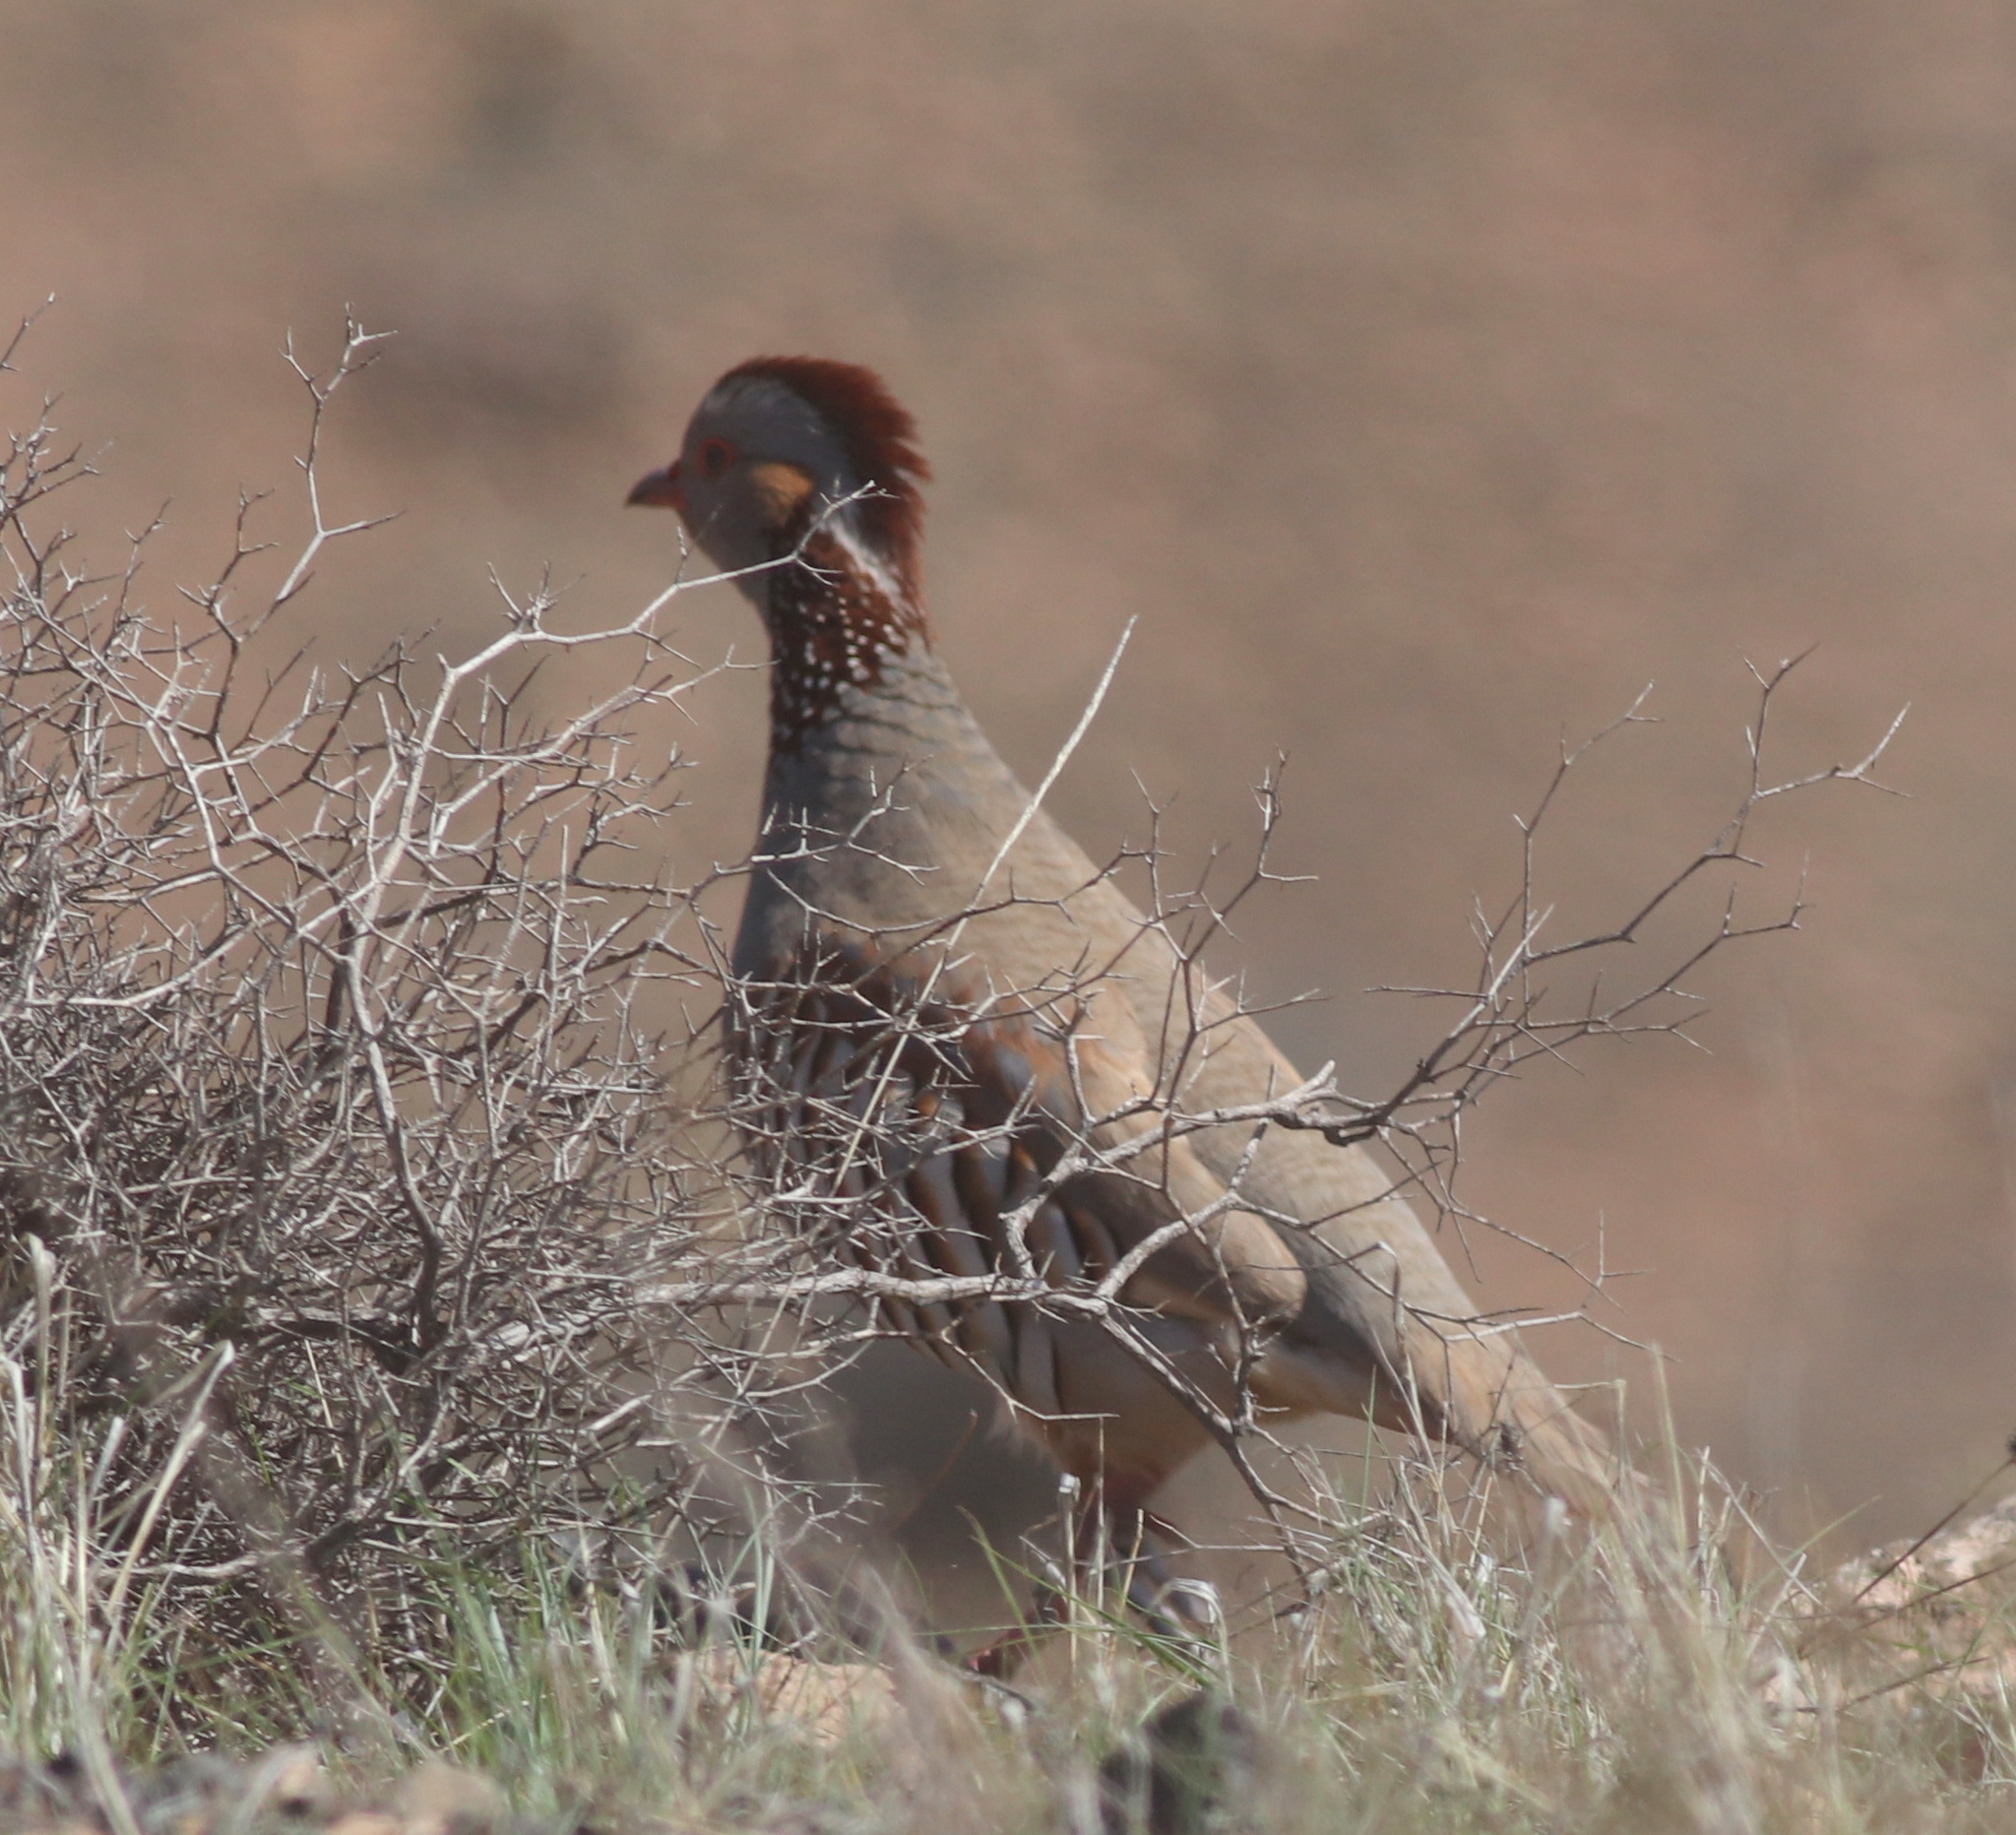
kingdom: Animalia
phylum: Chordata
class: Aves
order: Galliformes
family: Phasianidae
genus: Alectoris
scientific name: Alectoris barbara
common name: Barbary partridge
